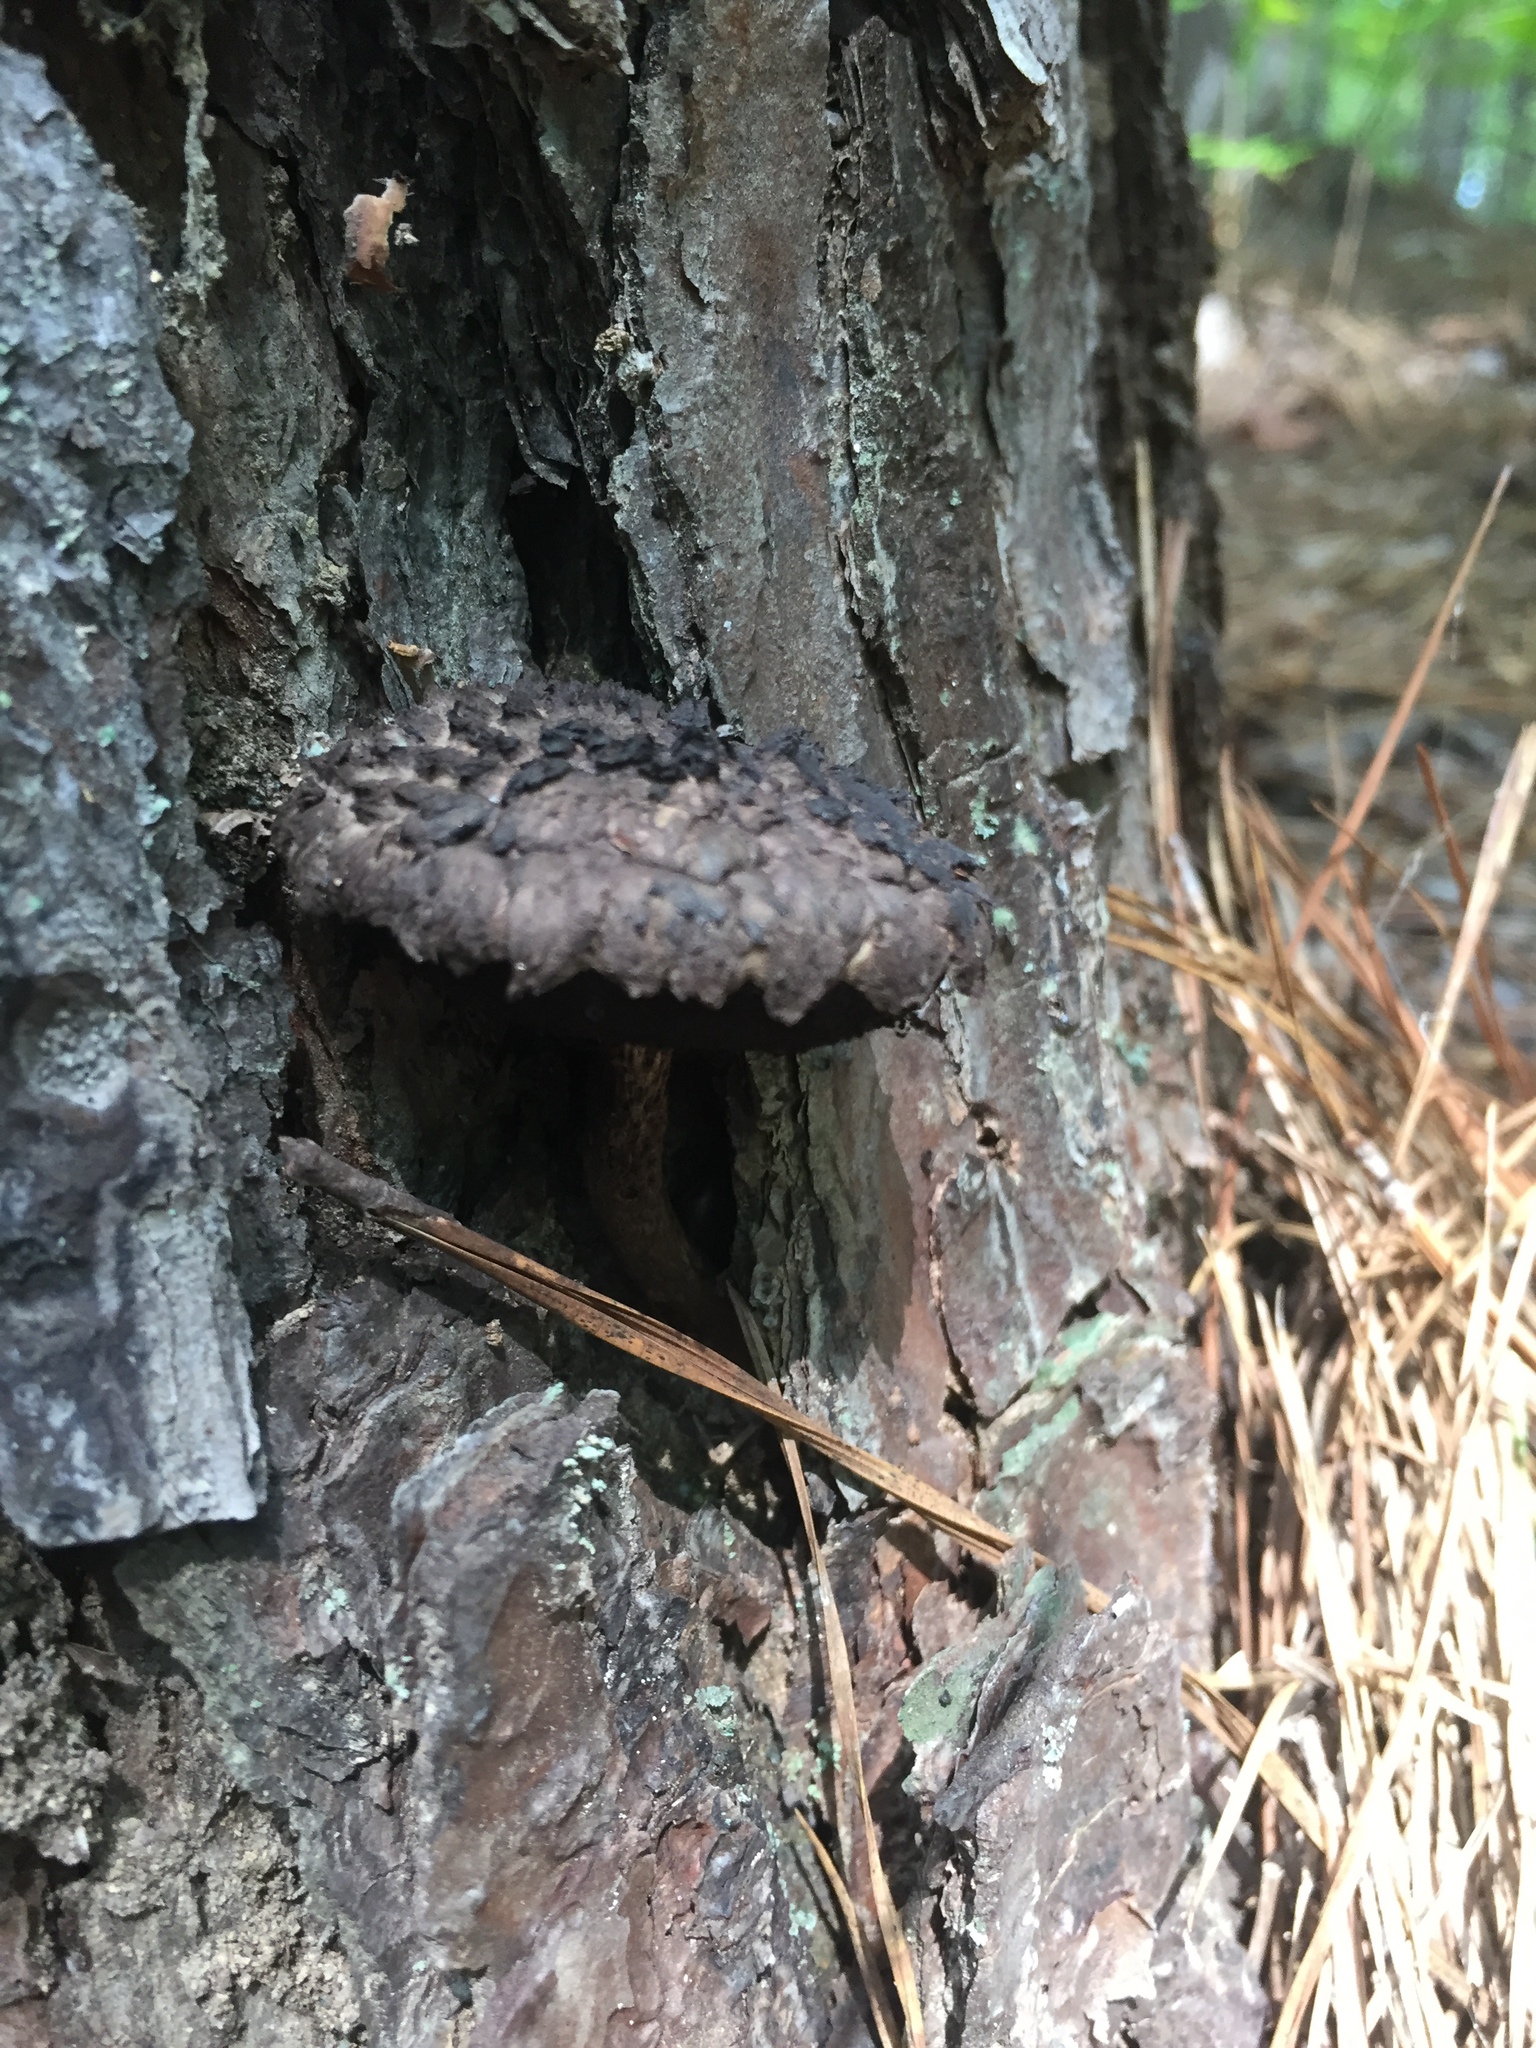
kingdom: Fungi
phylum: Basidiomycota
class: Agaricomycetes
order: Boletales
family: Boletaceae
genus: Strobilomyces
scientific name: Strobilomyces strobilaceus
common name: Old man of the woods
